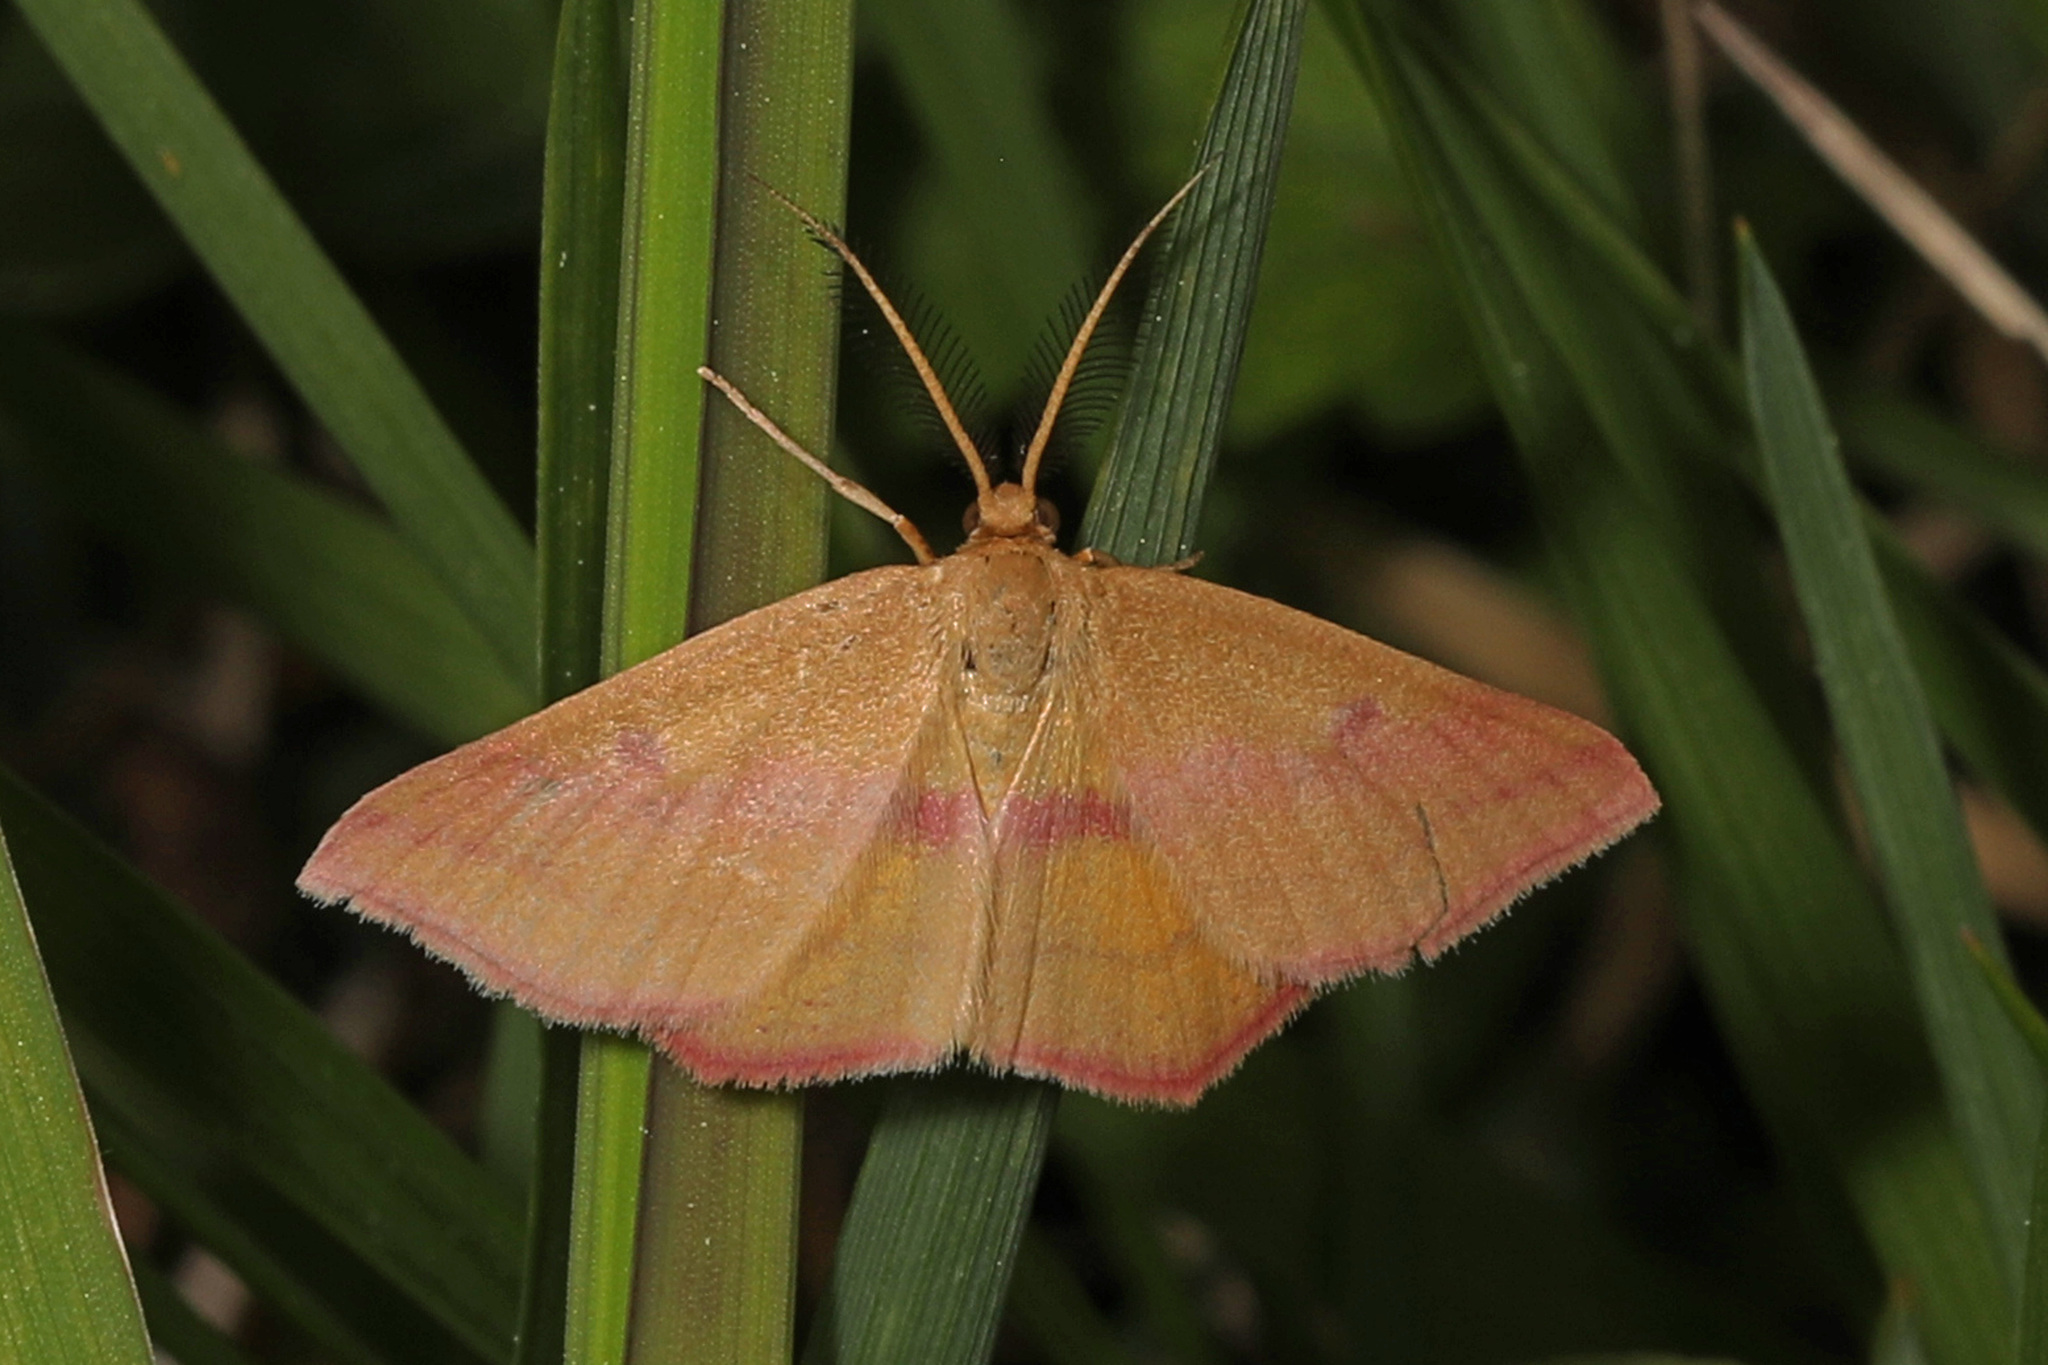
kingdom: Animalia
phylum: Arthropoda
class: Insecta
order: Lepidoptera
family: Geometridae
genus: Haematopis
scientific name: Haematopis grataria
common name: Chickweed geometer
